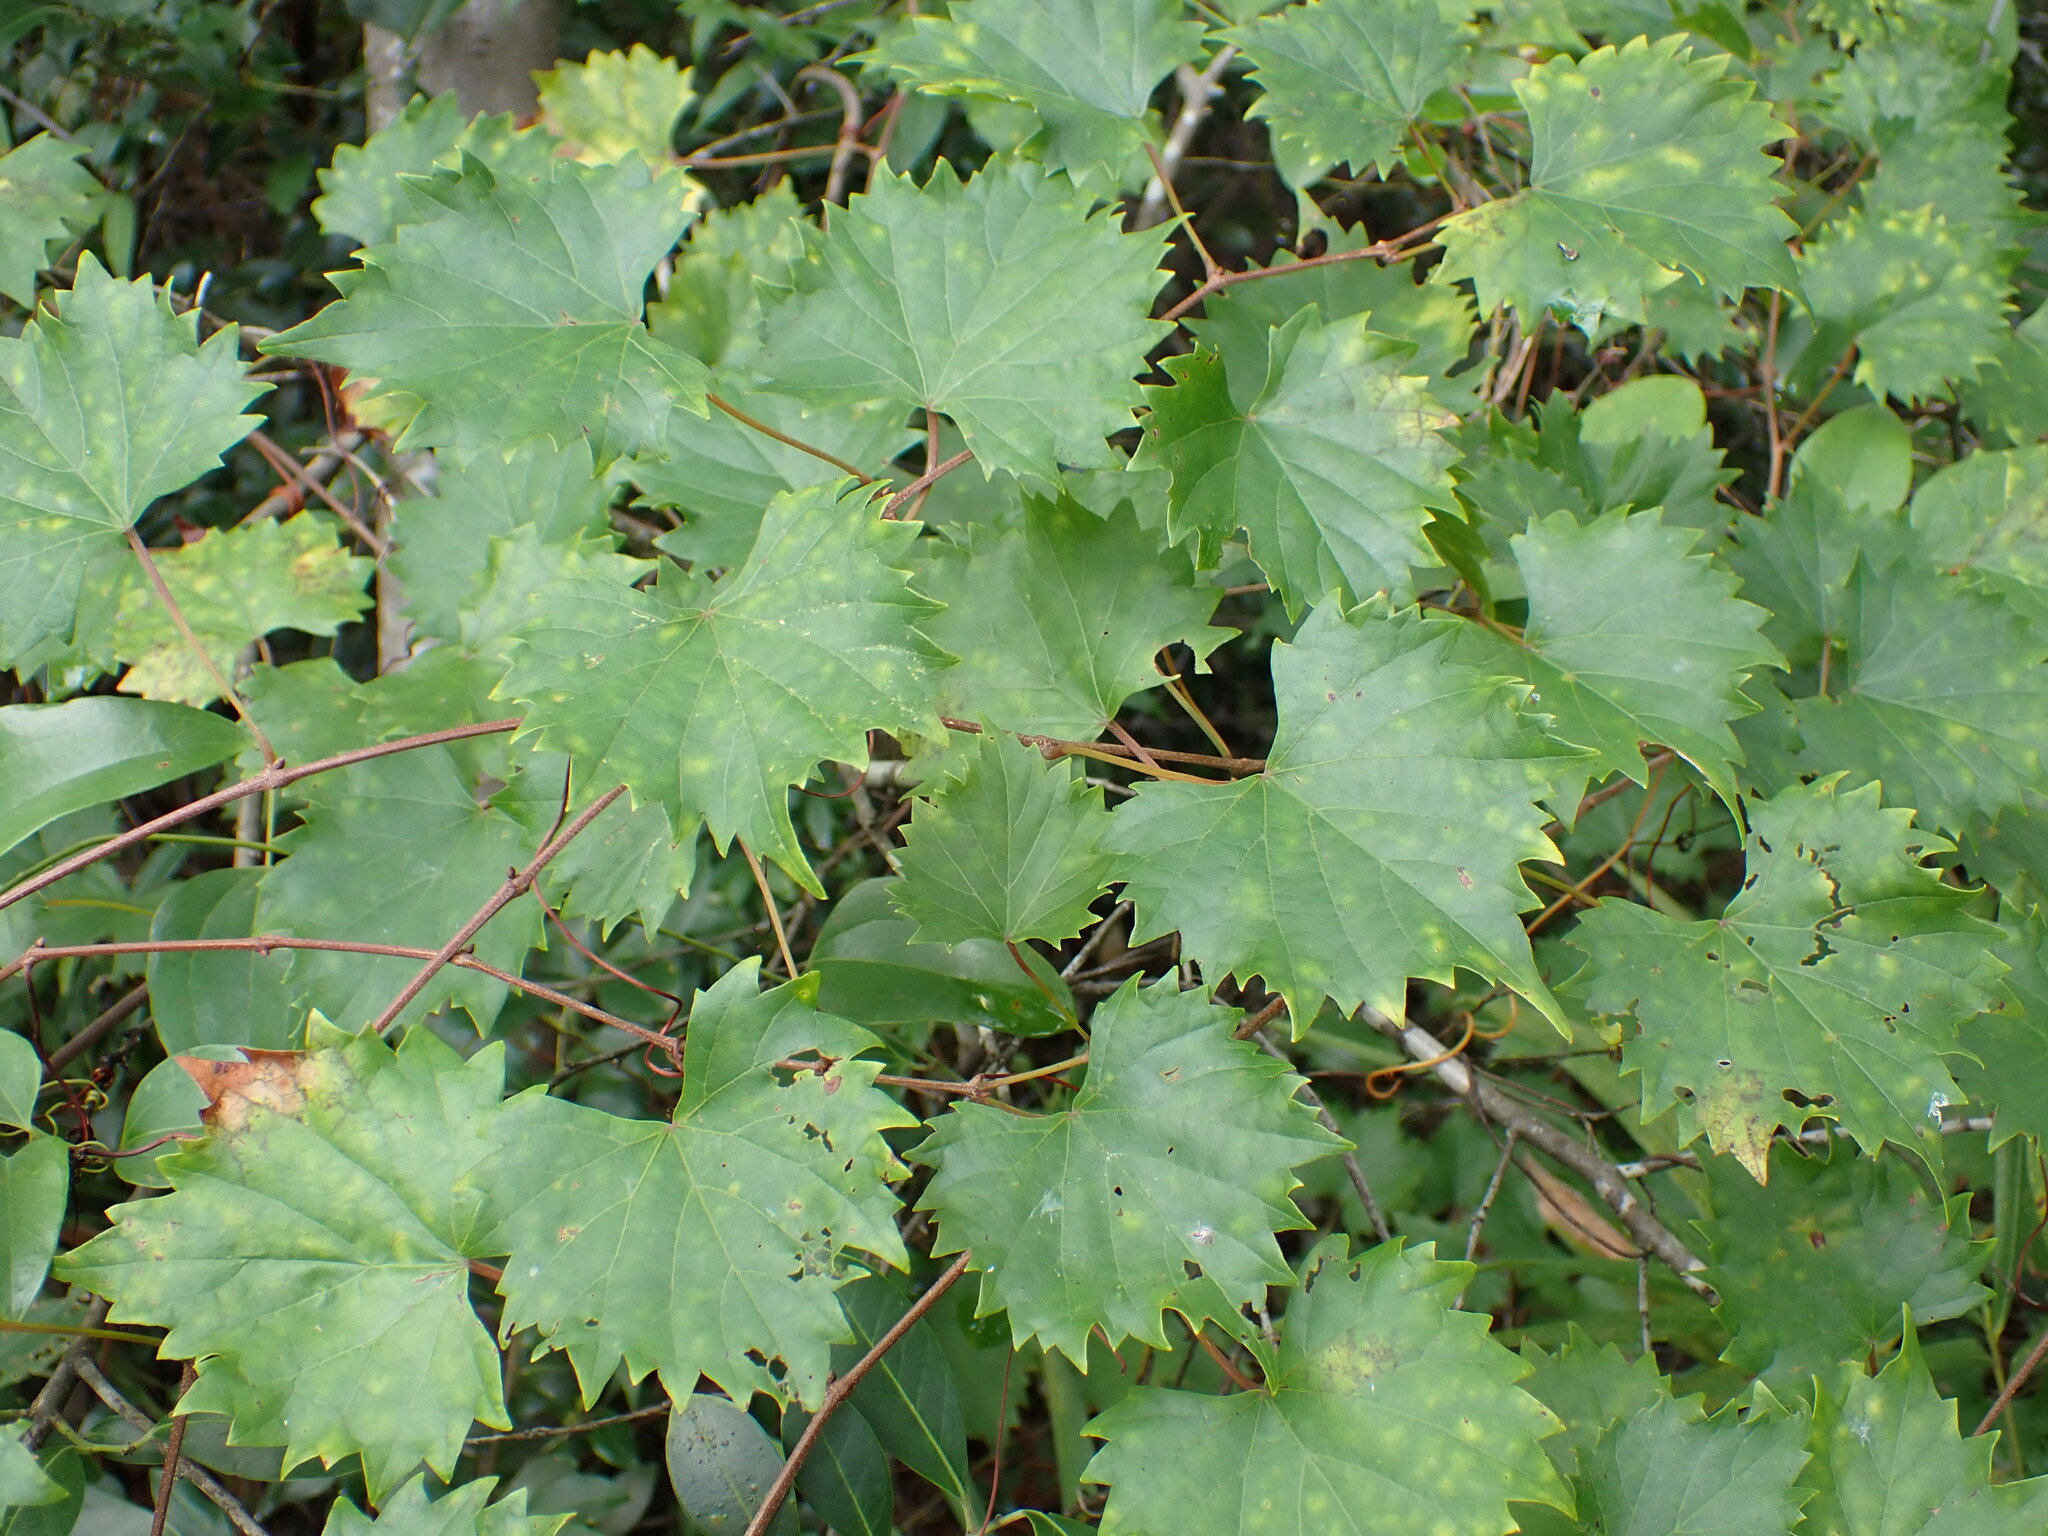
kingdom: Plantae
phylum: Tracheophyta
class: Magnoliopsida
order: Vitales
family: Vitaceae
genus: Vitis
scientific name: Vitis rotundifolia
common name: Muscadine grape
